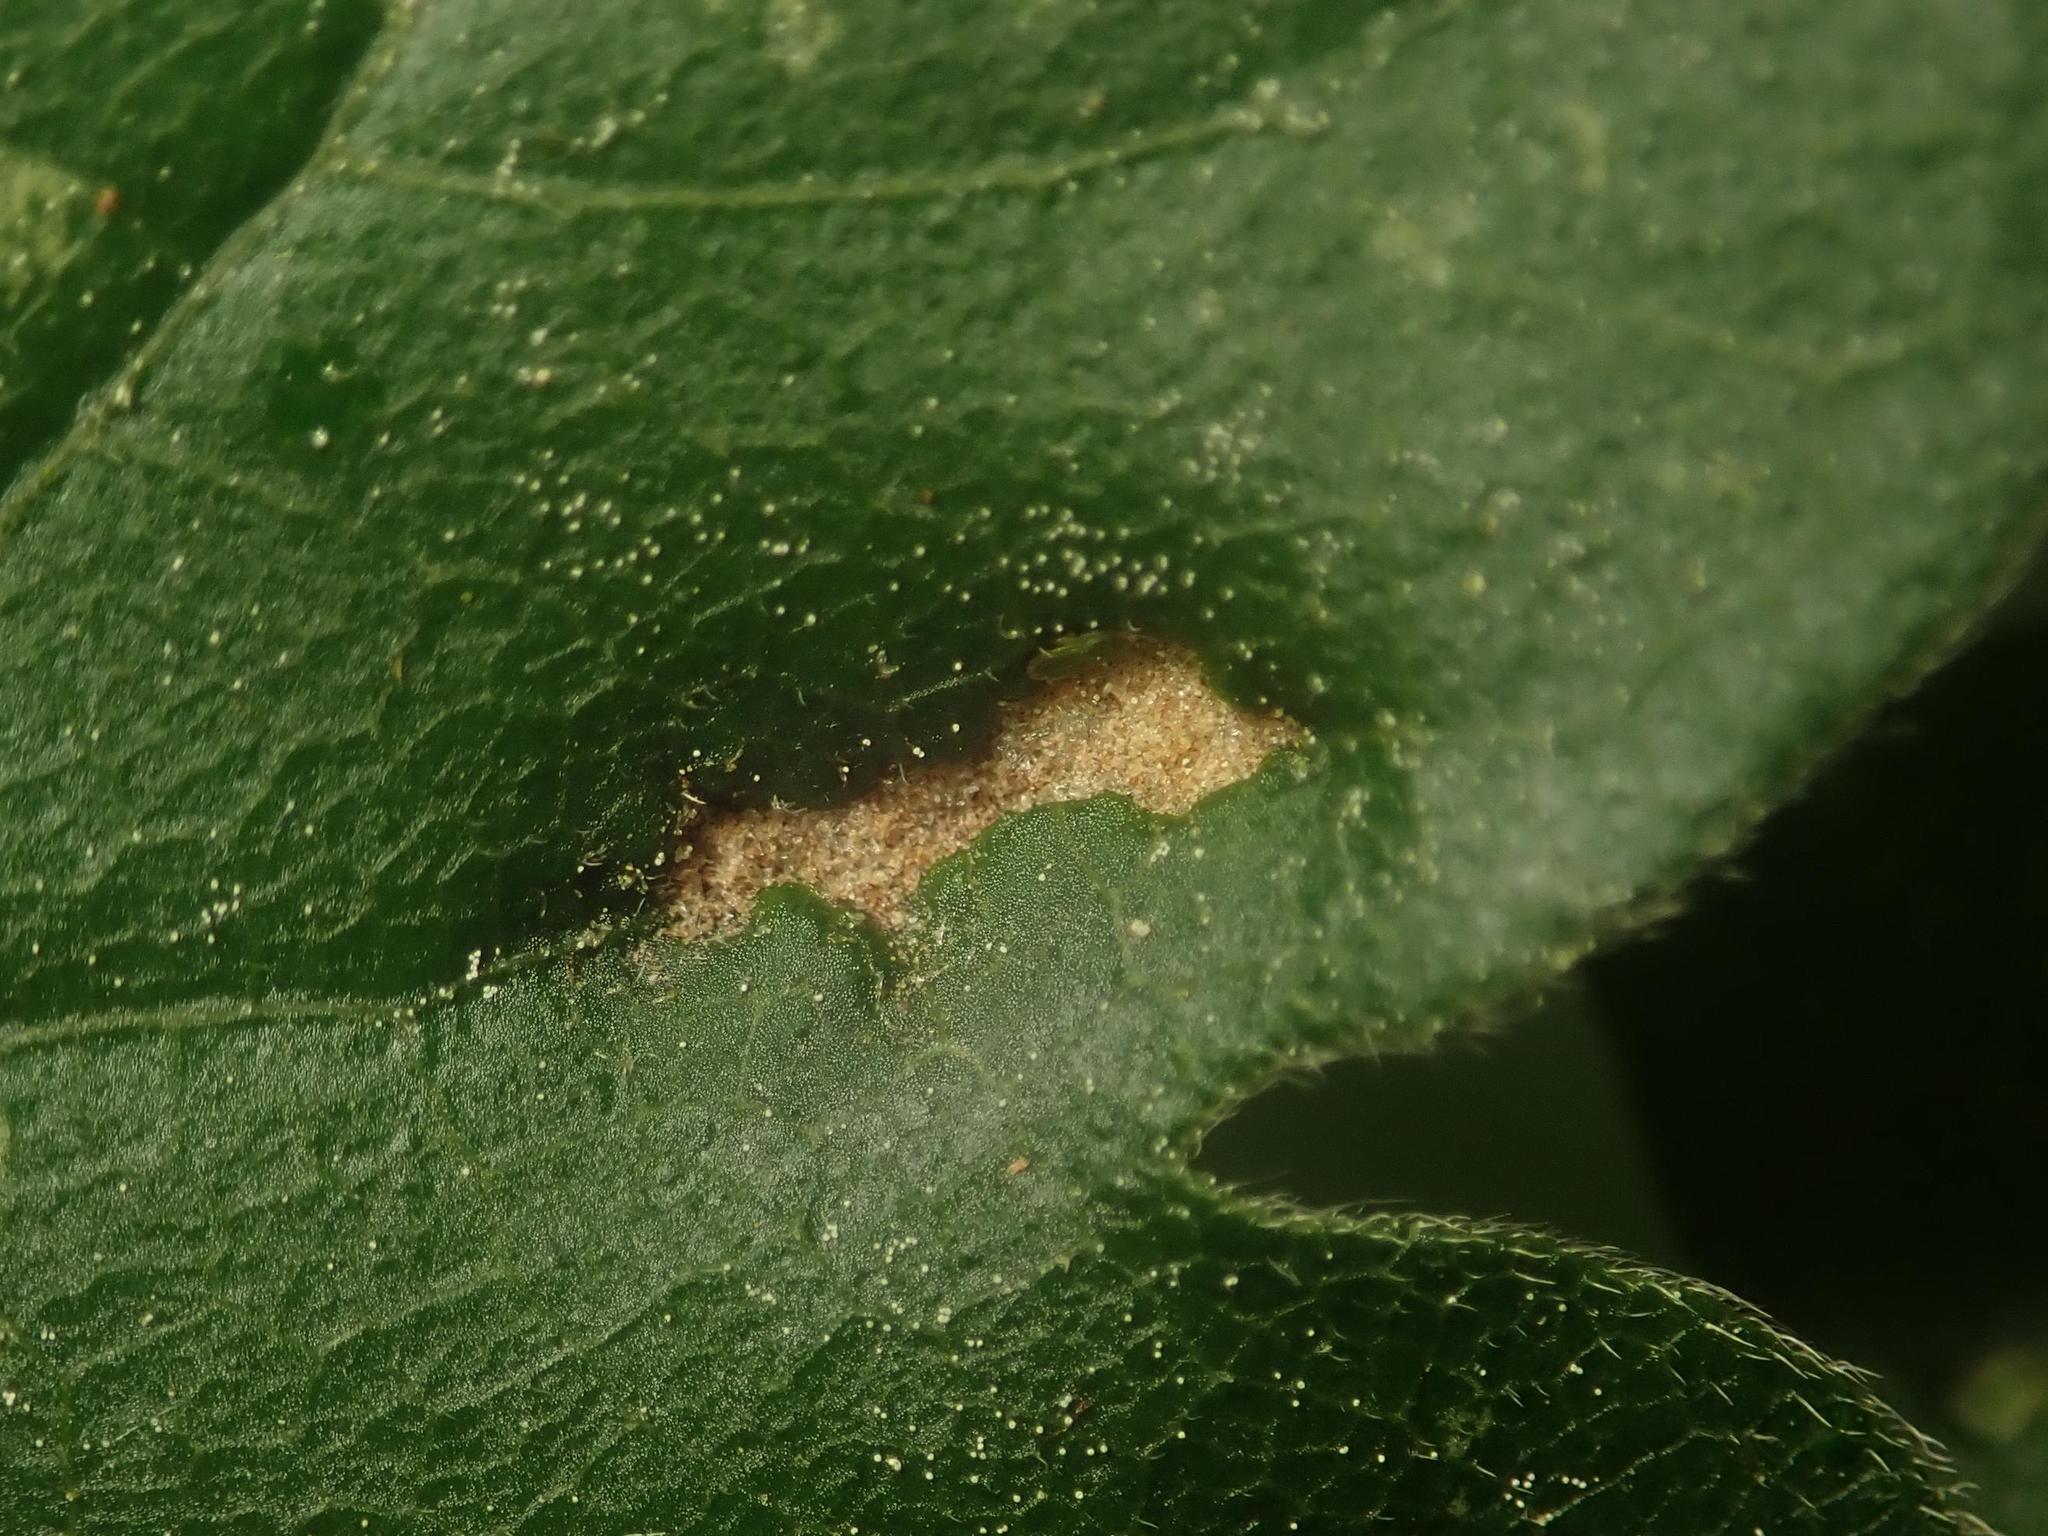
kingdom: Animalia
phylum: Arthropoda
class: Arachnida
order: Trombidiformes
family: Eriophyidae
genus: Aceria
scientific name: Aceria carinifex
